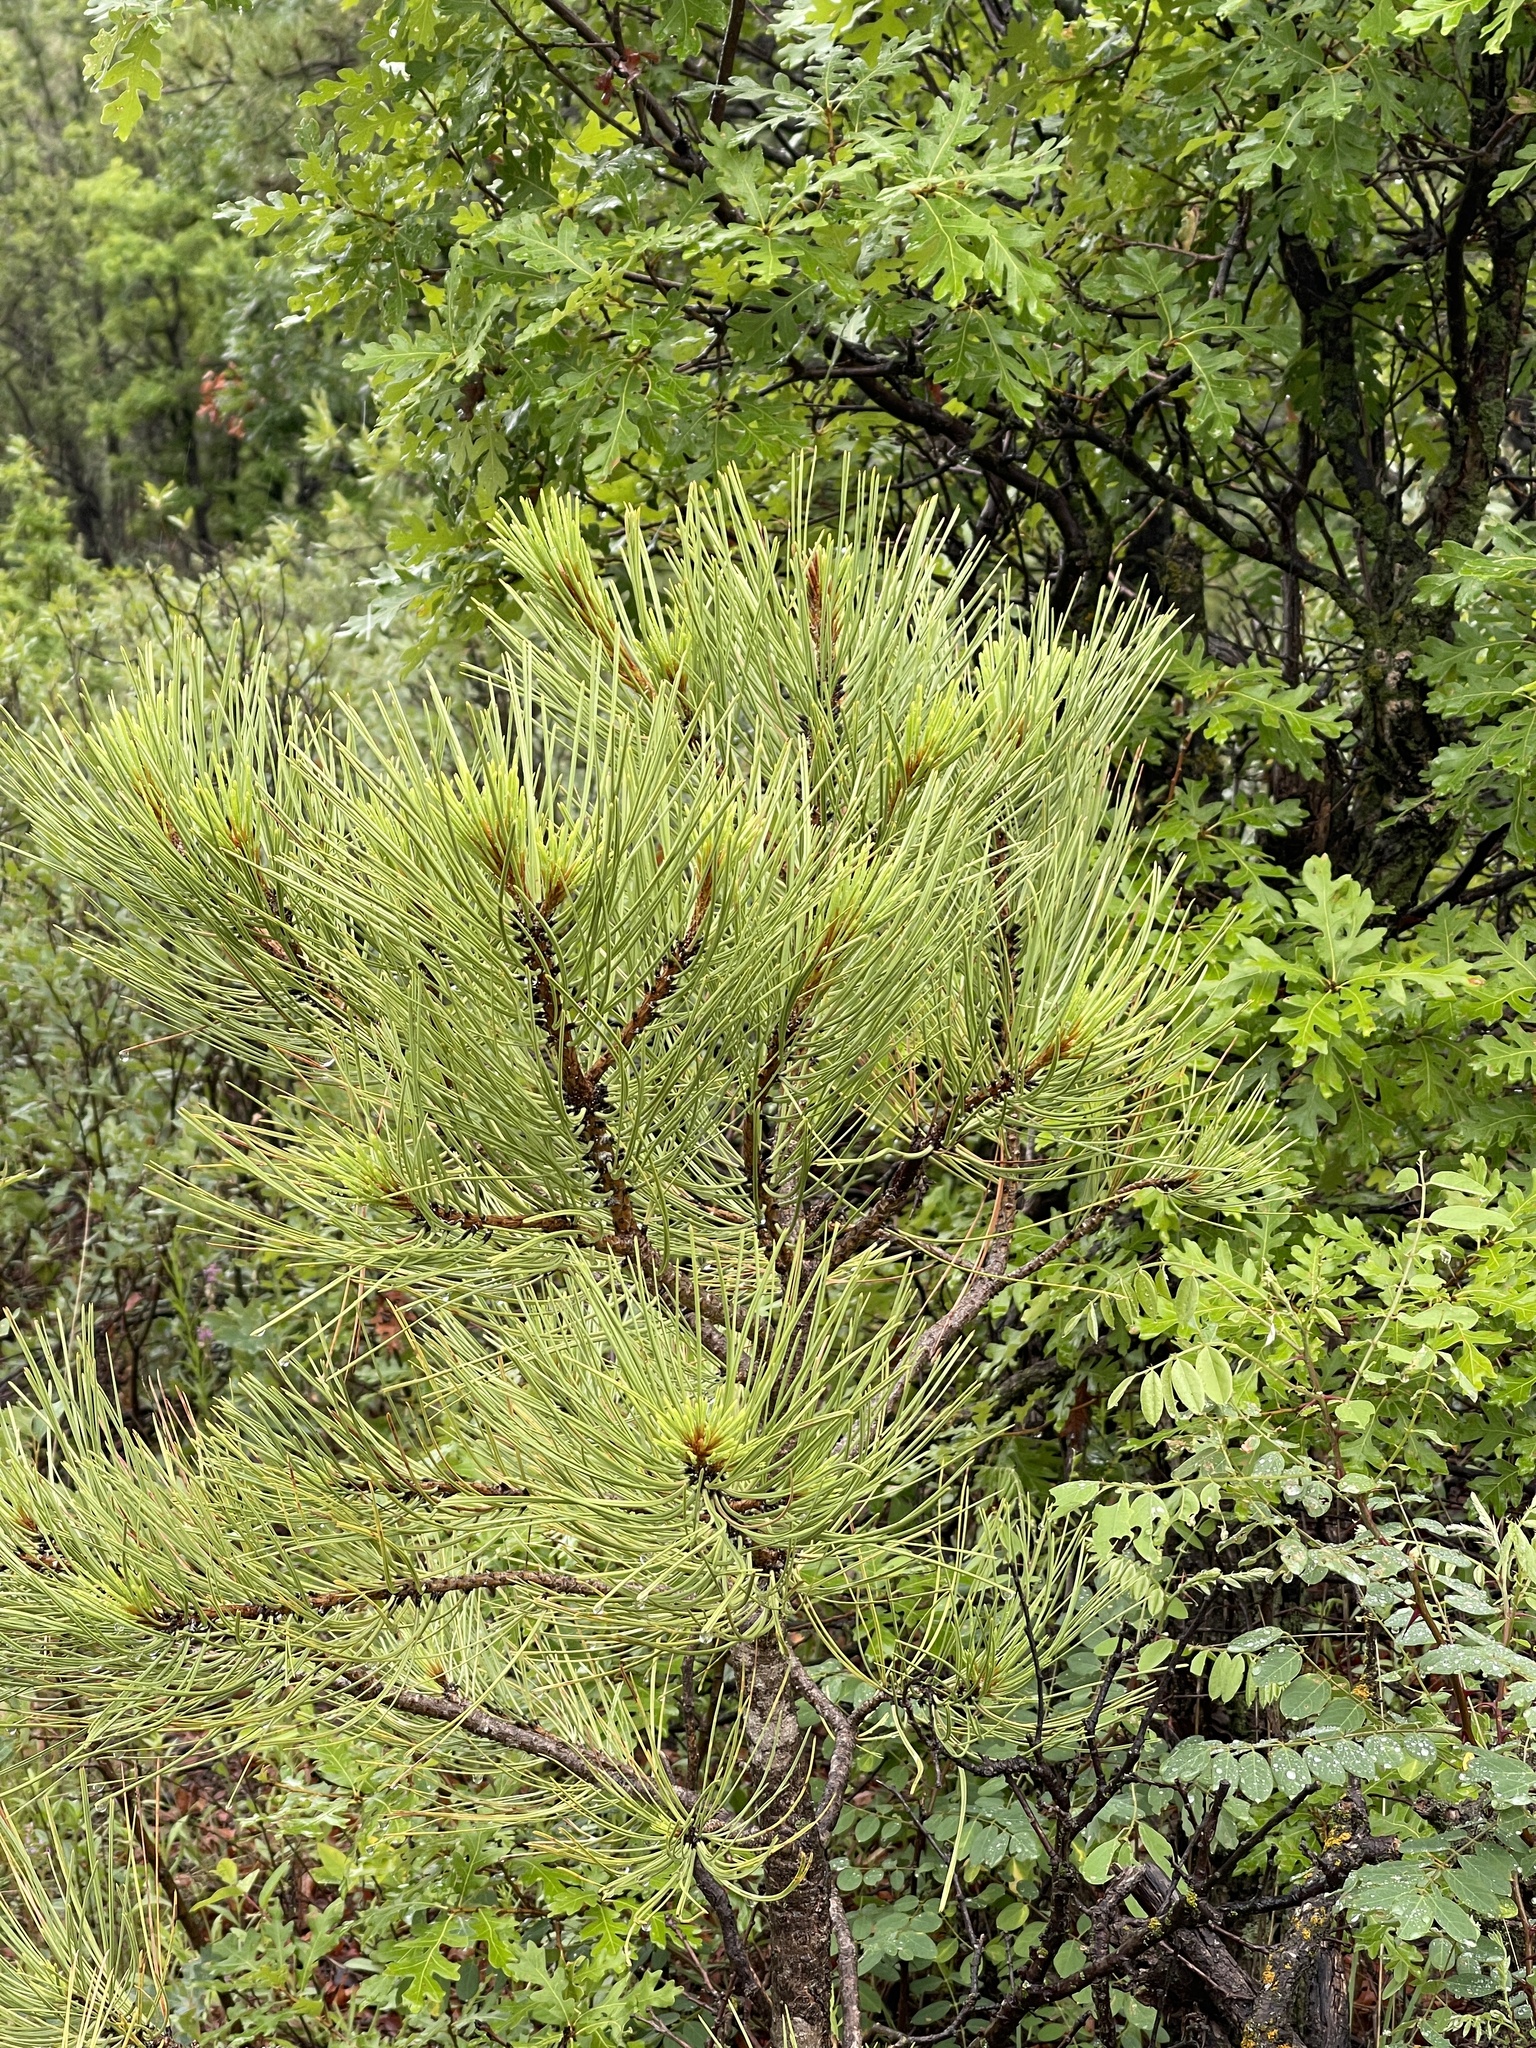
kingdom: Plantae
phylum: Tracheophyta
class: Pinopsida
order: Pinales
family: Pinaceae
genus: Pinus
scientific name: Pinus ponderosa
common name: Western yellow-pine
